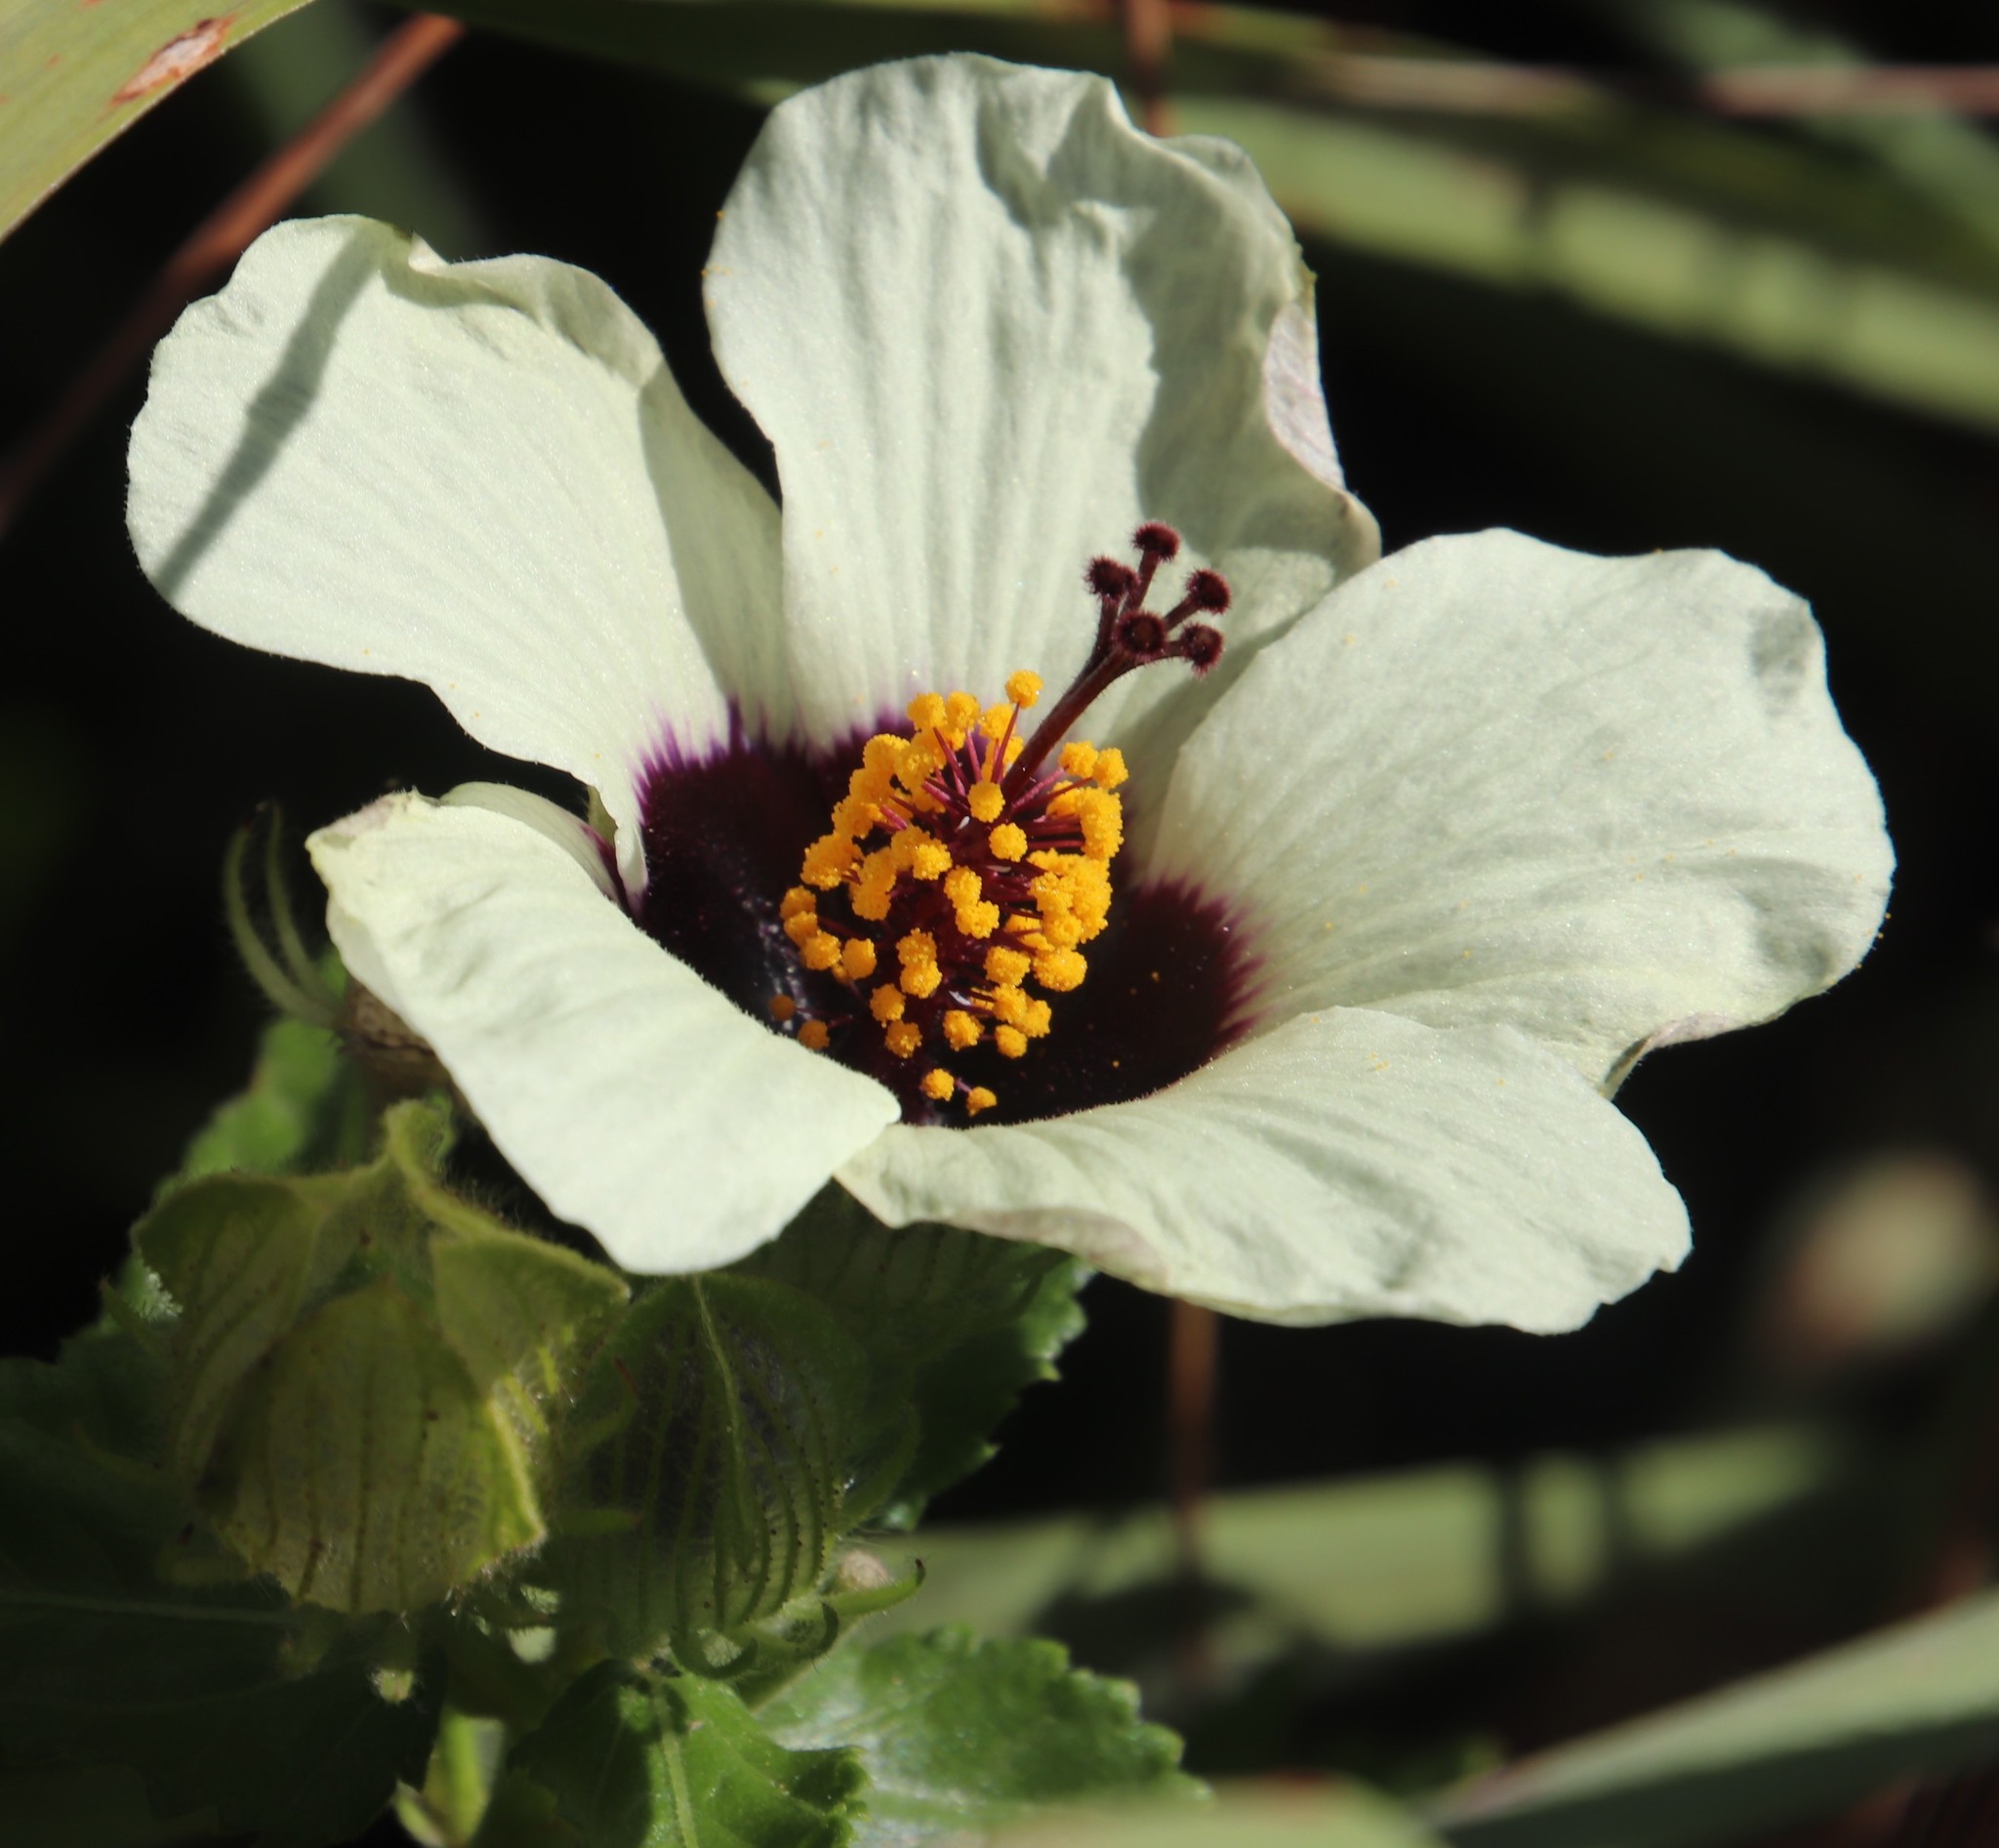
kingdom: Plantae
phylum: Tracheophyta
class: Magnoliopsida
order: Malvales
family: Malvaceae
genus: Hibiscus
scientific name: Hibiscus trionum
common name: Bladder ketmia
